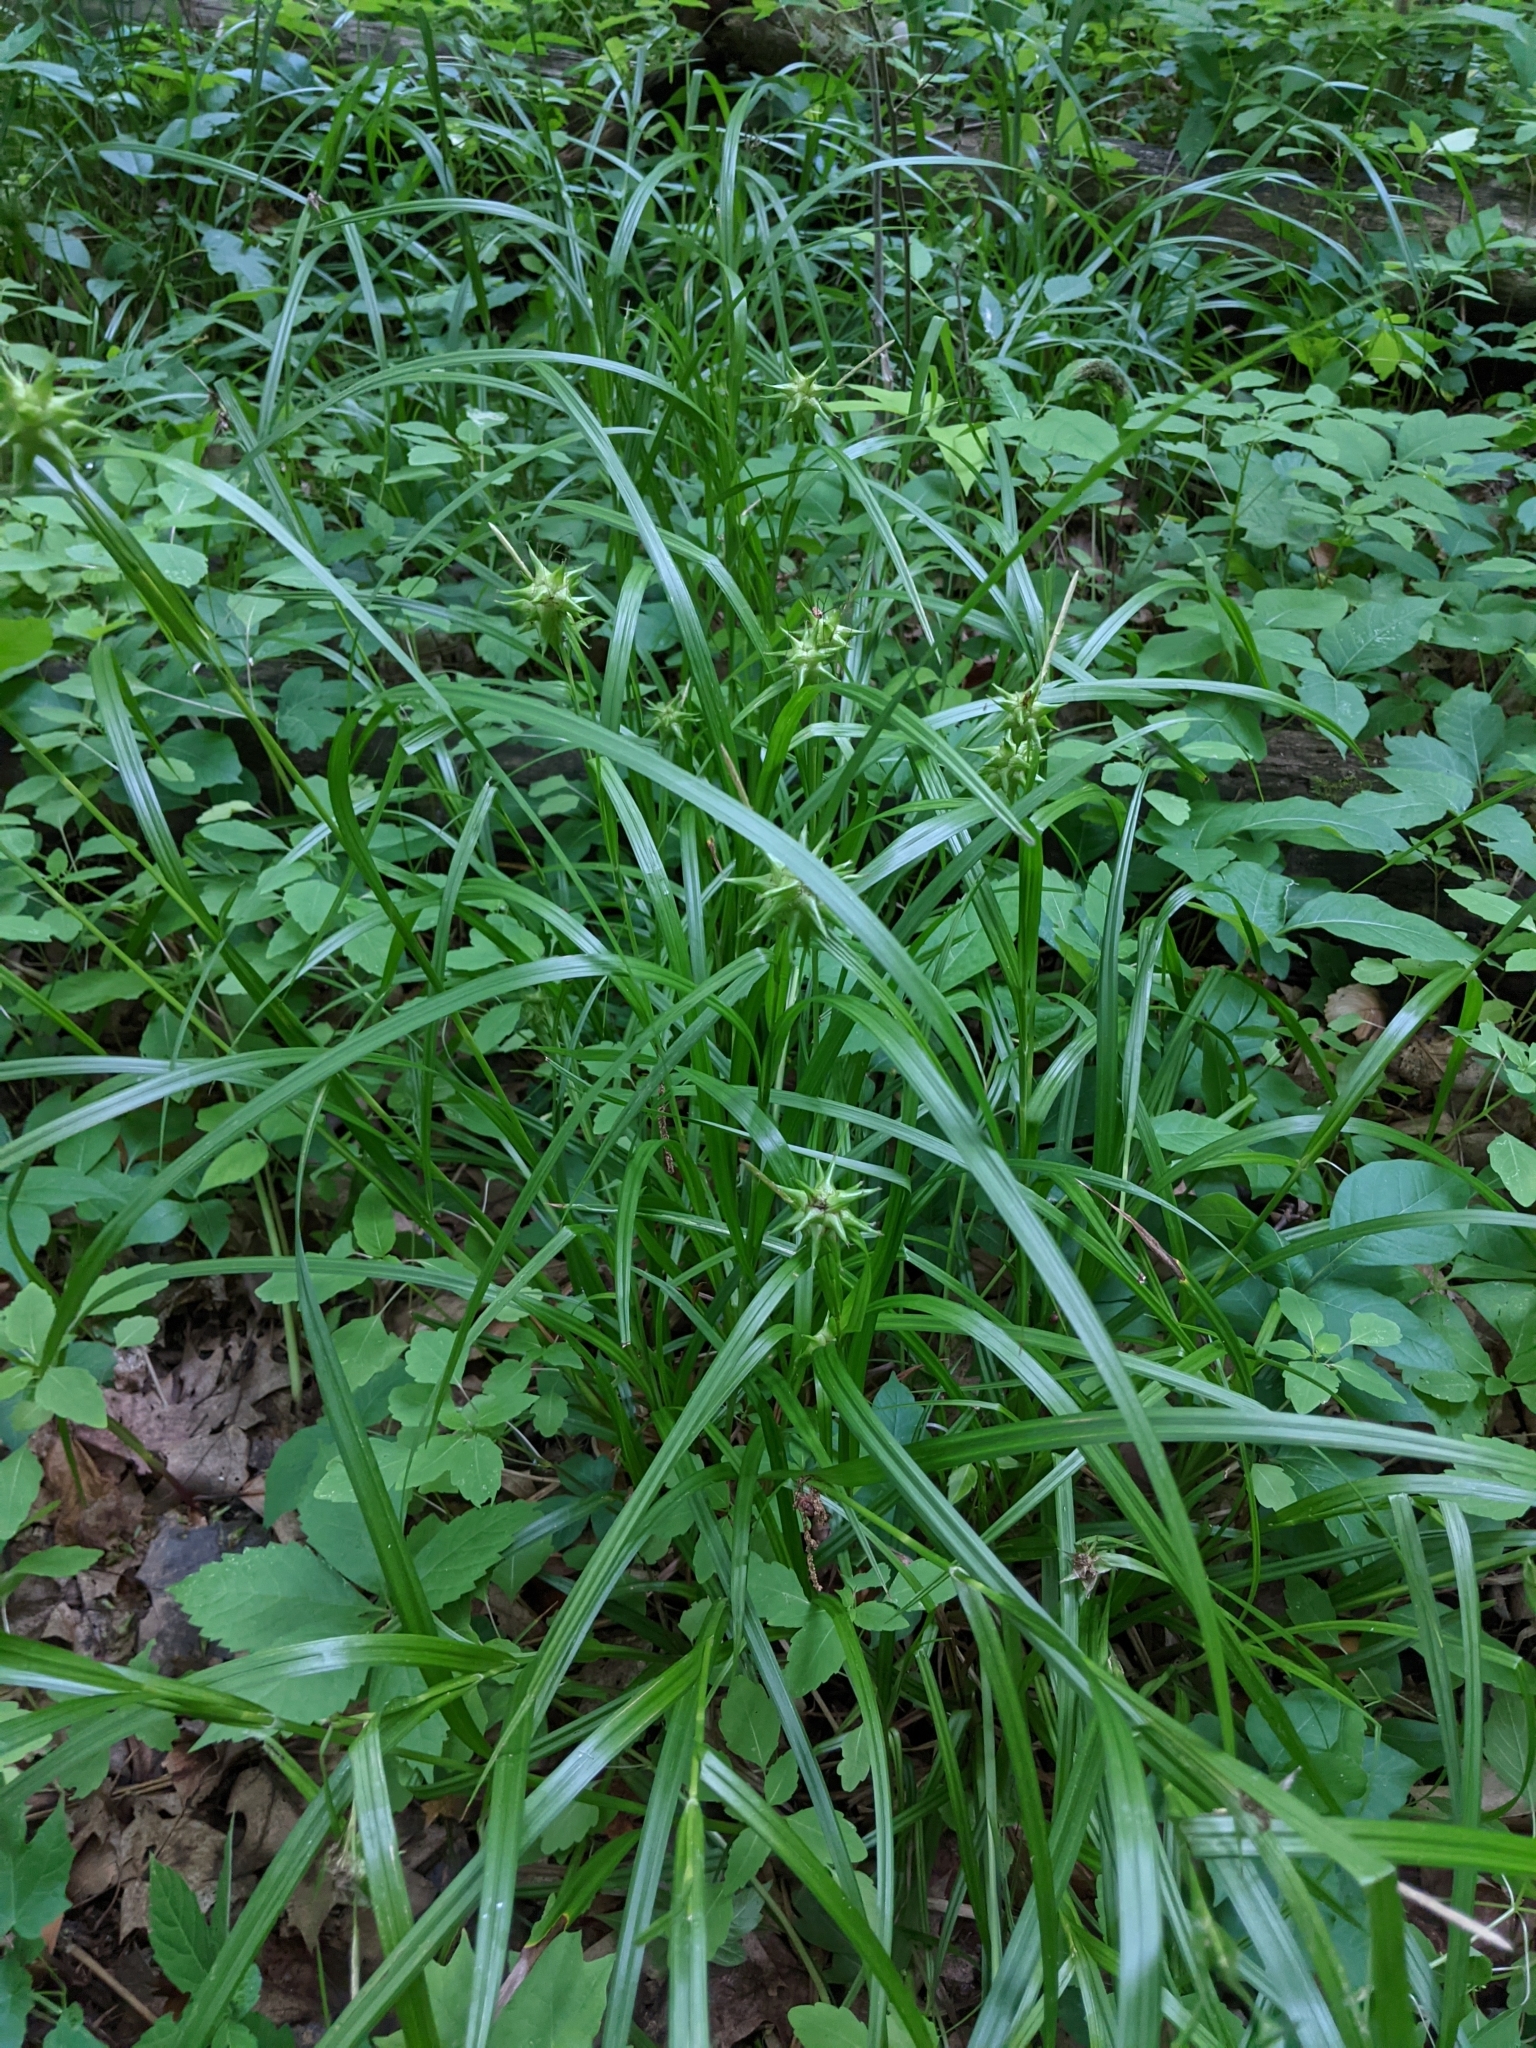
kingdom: Plantae
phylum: Tracheophyta
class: Liliopsida
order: Poales
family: Cyperaceae
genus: Carex
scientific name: Carex grayi
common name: Asa gray's sedge
